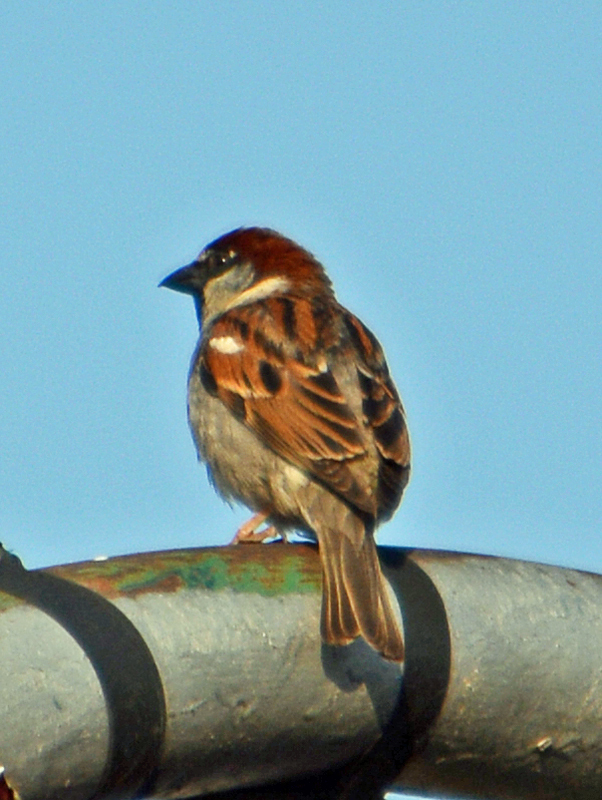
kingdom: Animalia
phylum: Chordata
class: Aves
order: Passeriformes
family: Passeridae
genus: Passer
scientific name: Passer domesticus
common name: House sparrow
